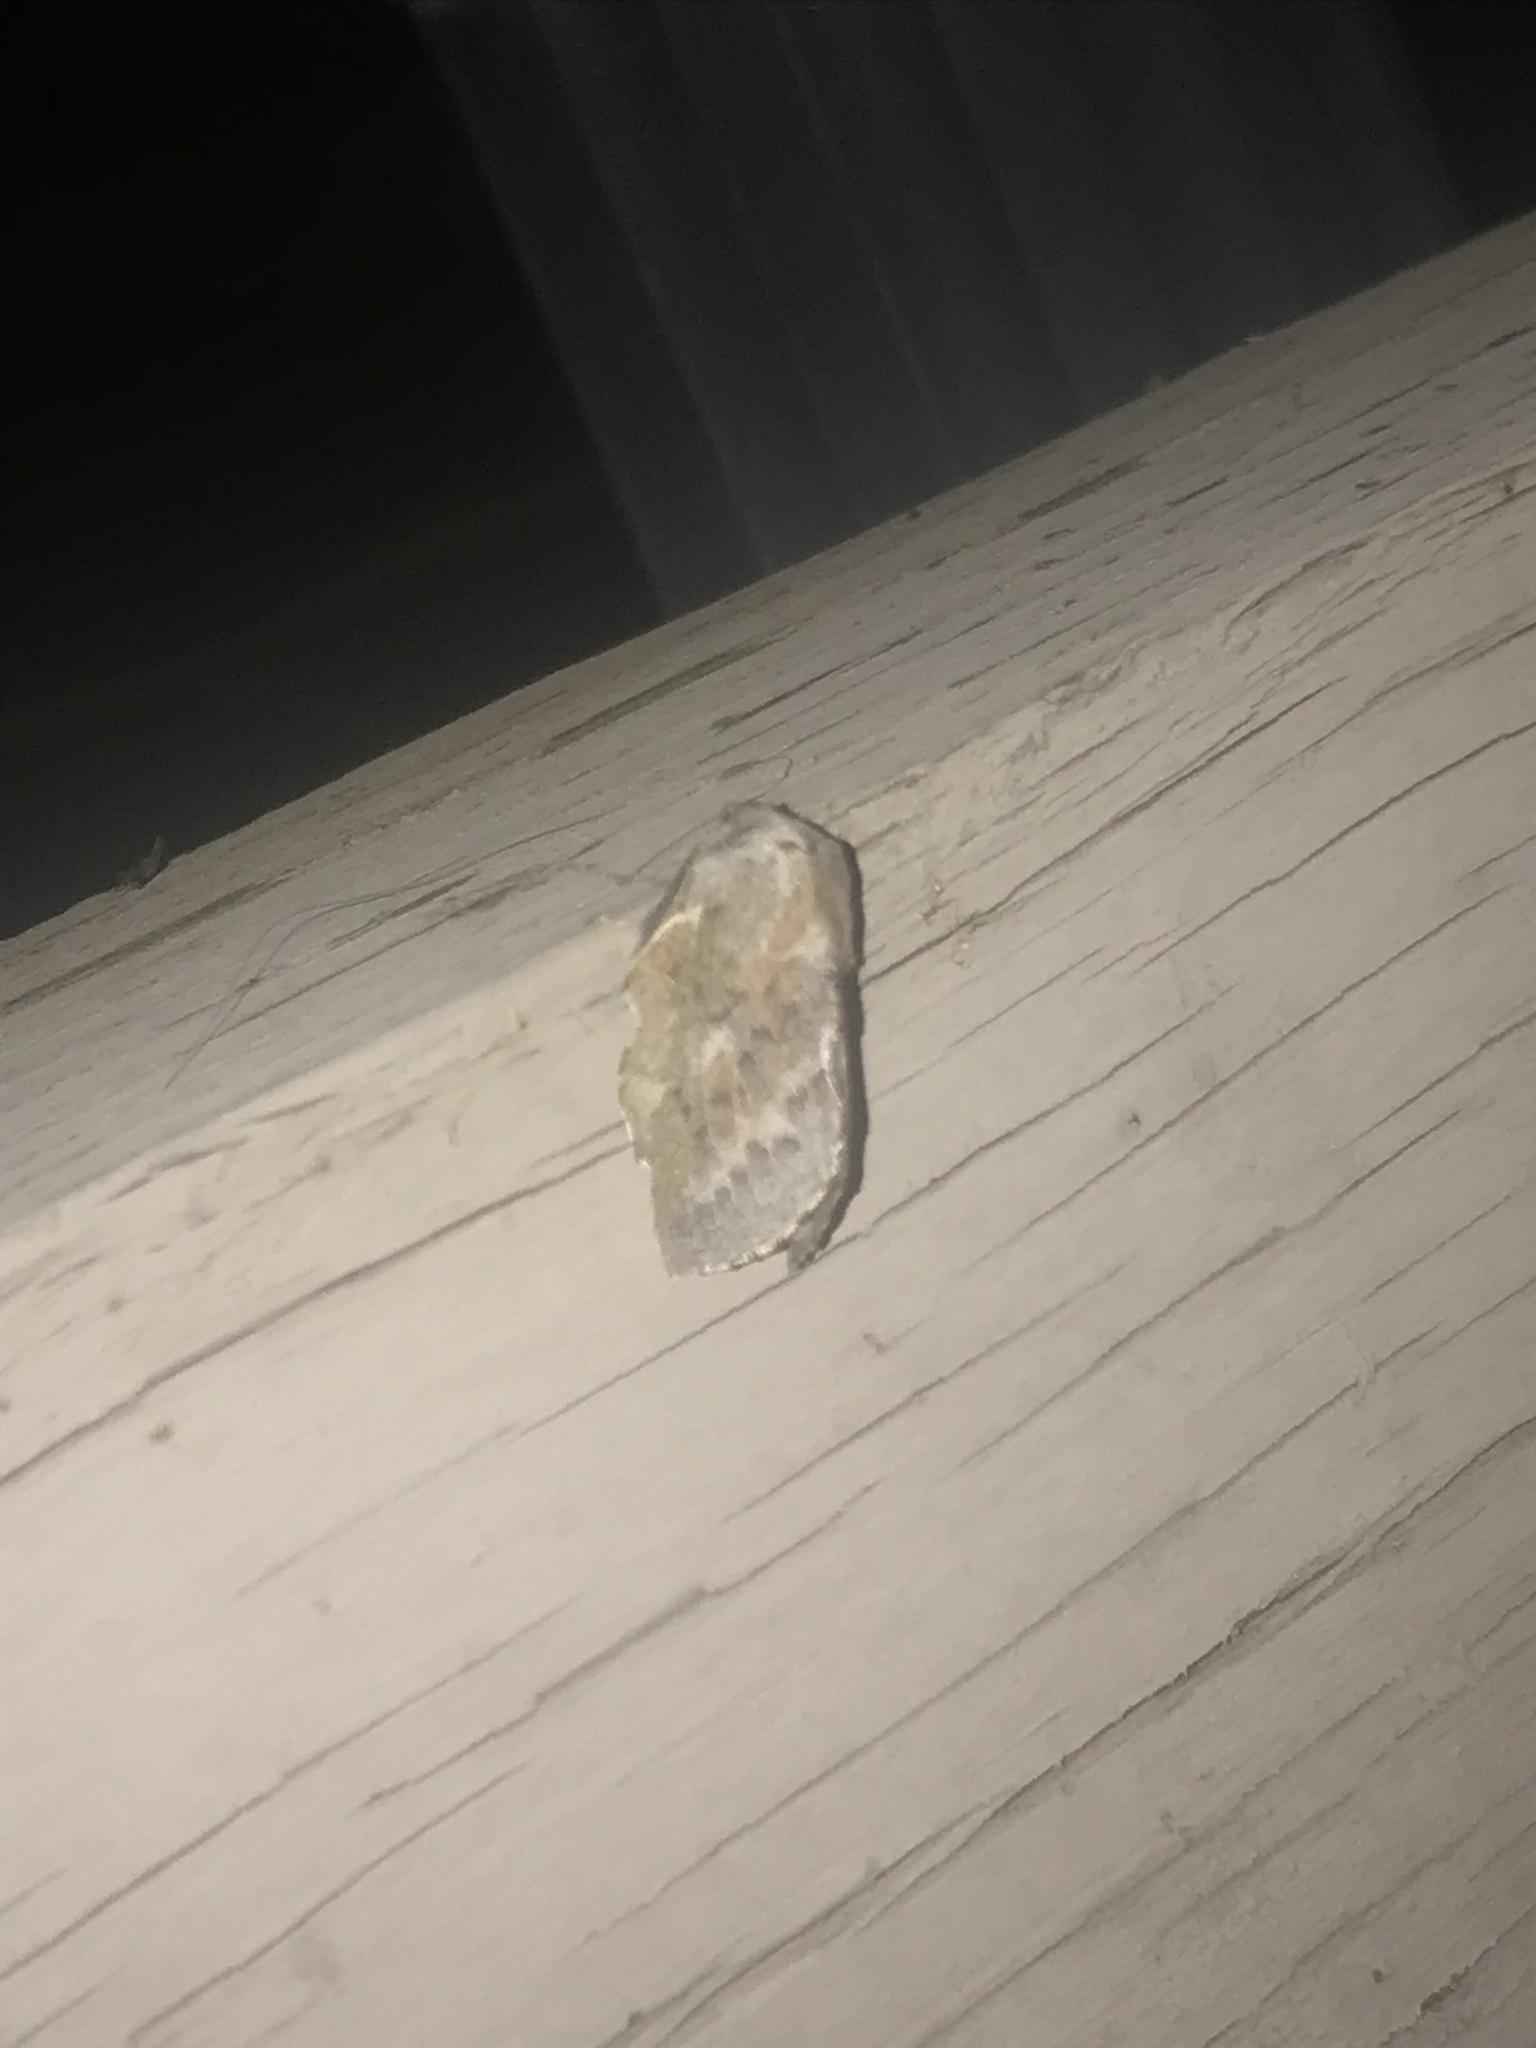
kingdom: Animalia
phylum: Arthropoda
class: Insecta
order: Lepidoptera
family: Lasiocampidae
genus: Phyllodesma
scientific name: Phyllodesma americana
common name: American lappet moth
